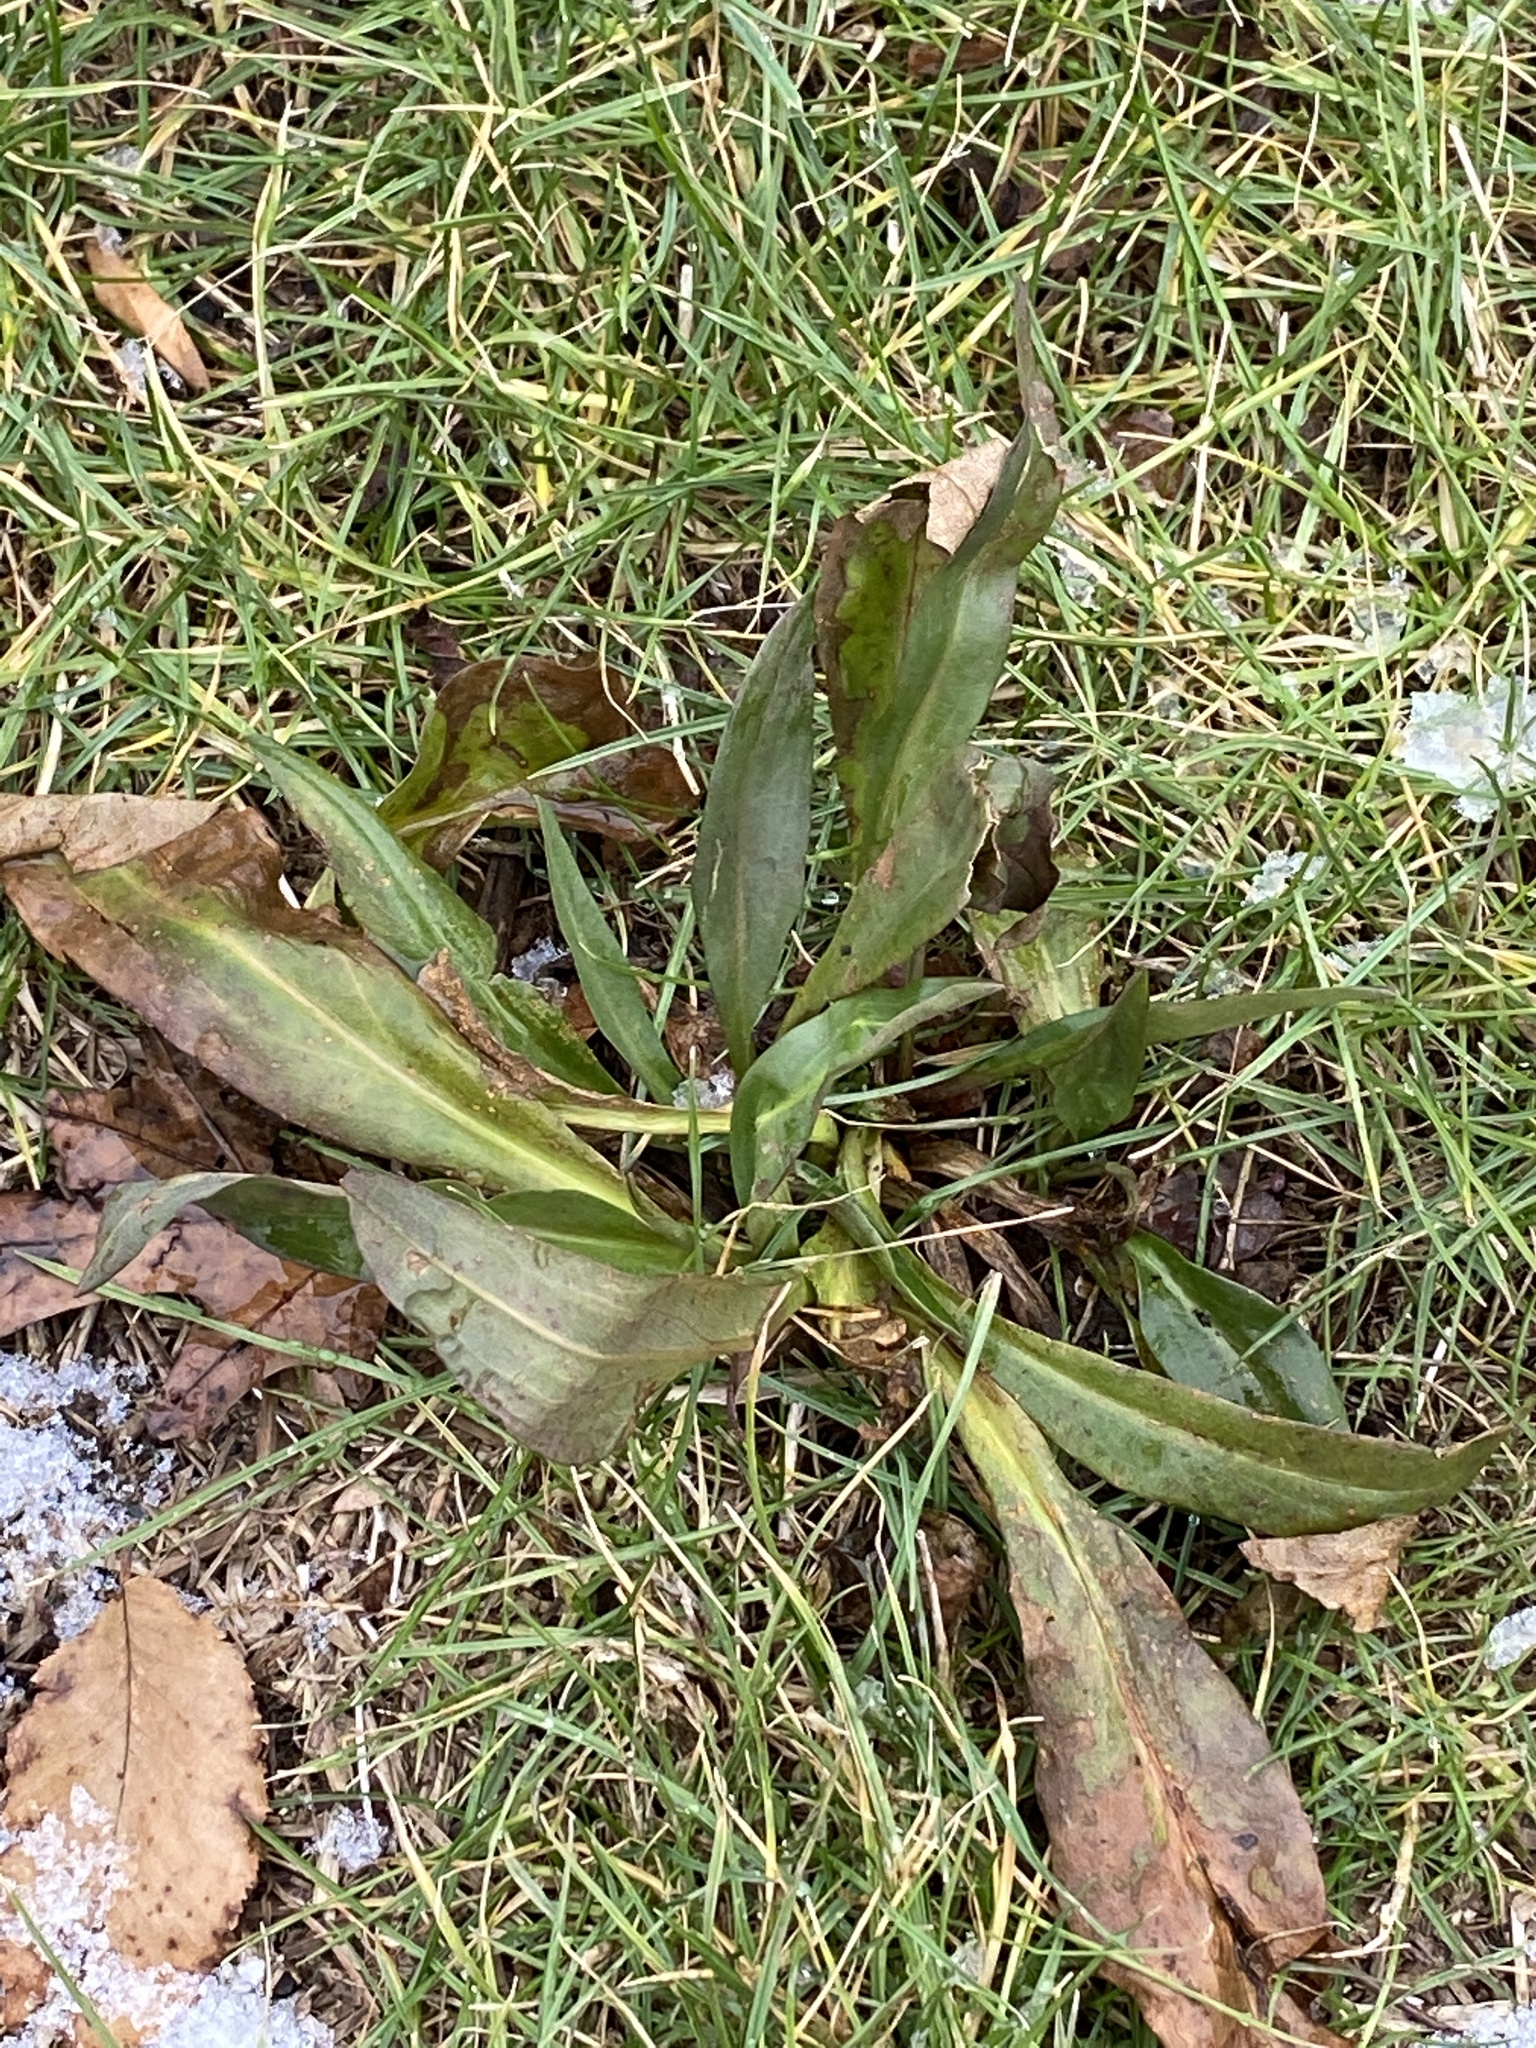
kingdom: Plantae
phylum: Tracheophyta
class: Magnoliopsida
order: Asterales
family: Asteraceae
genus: Solidago
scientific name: Solidago sempervirens
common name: Salt-marsh goldenrod
